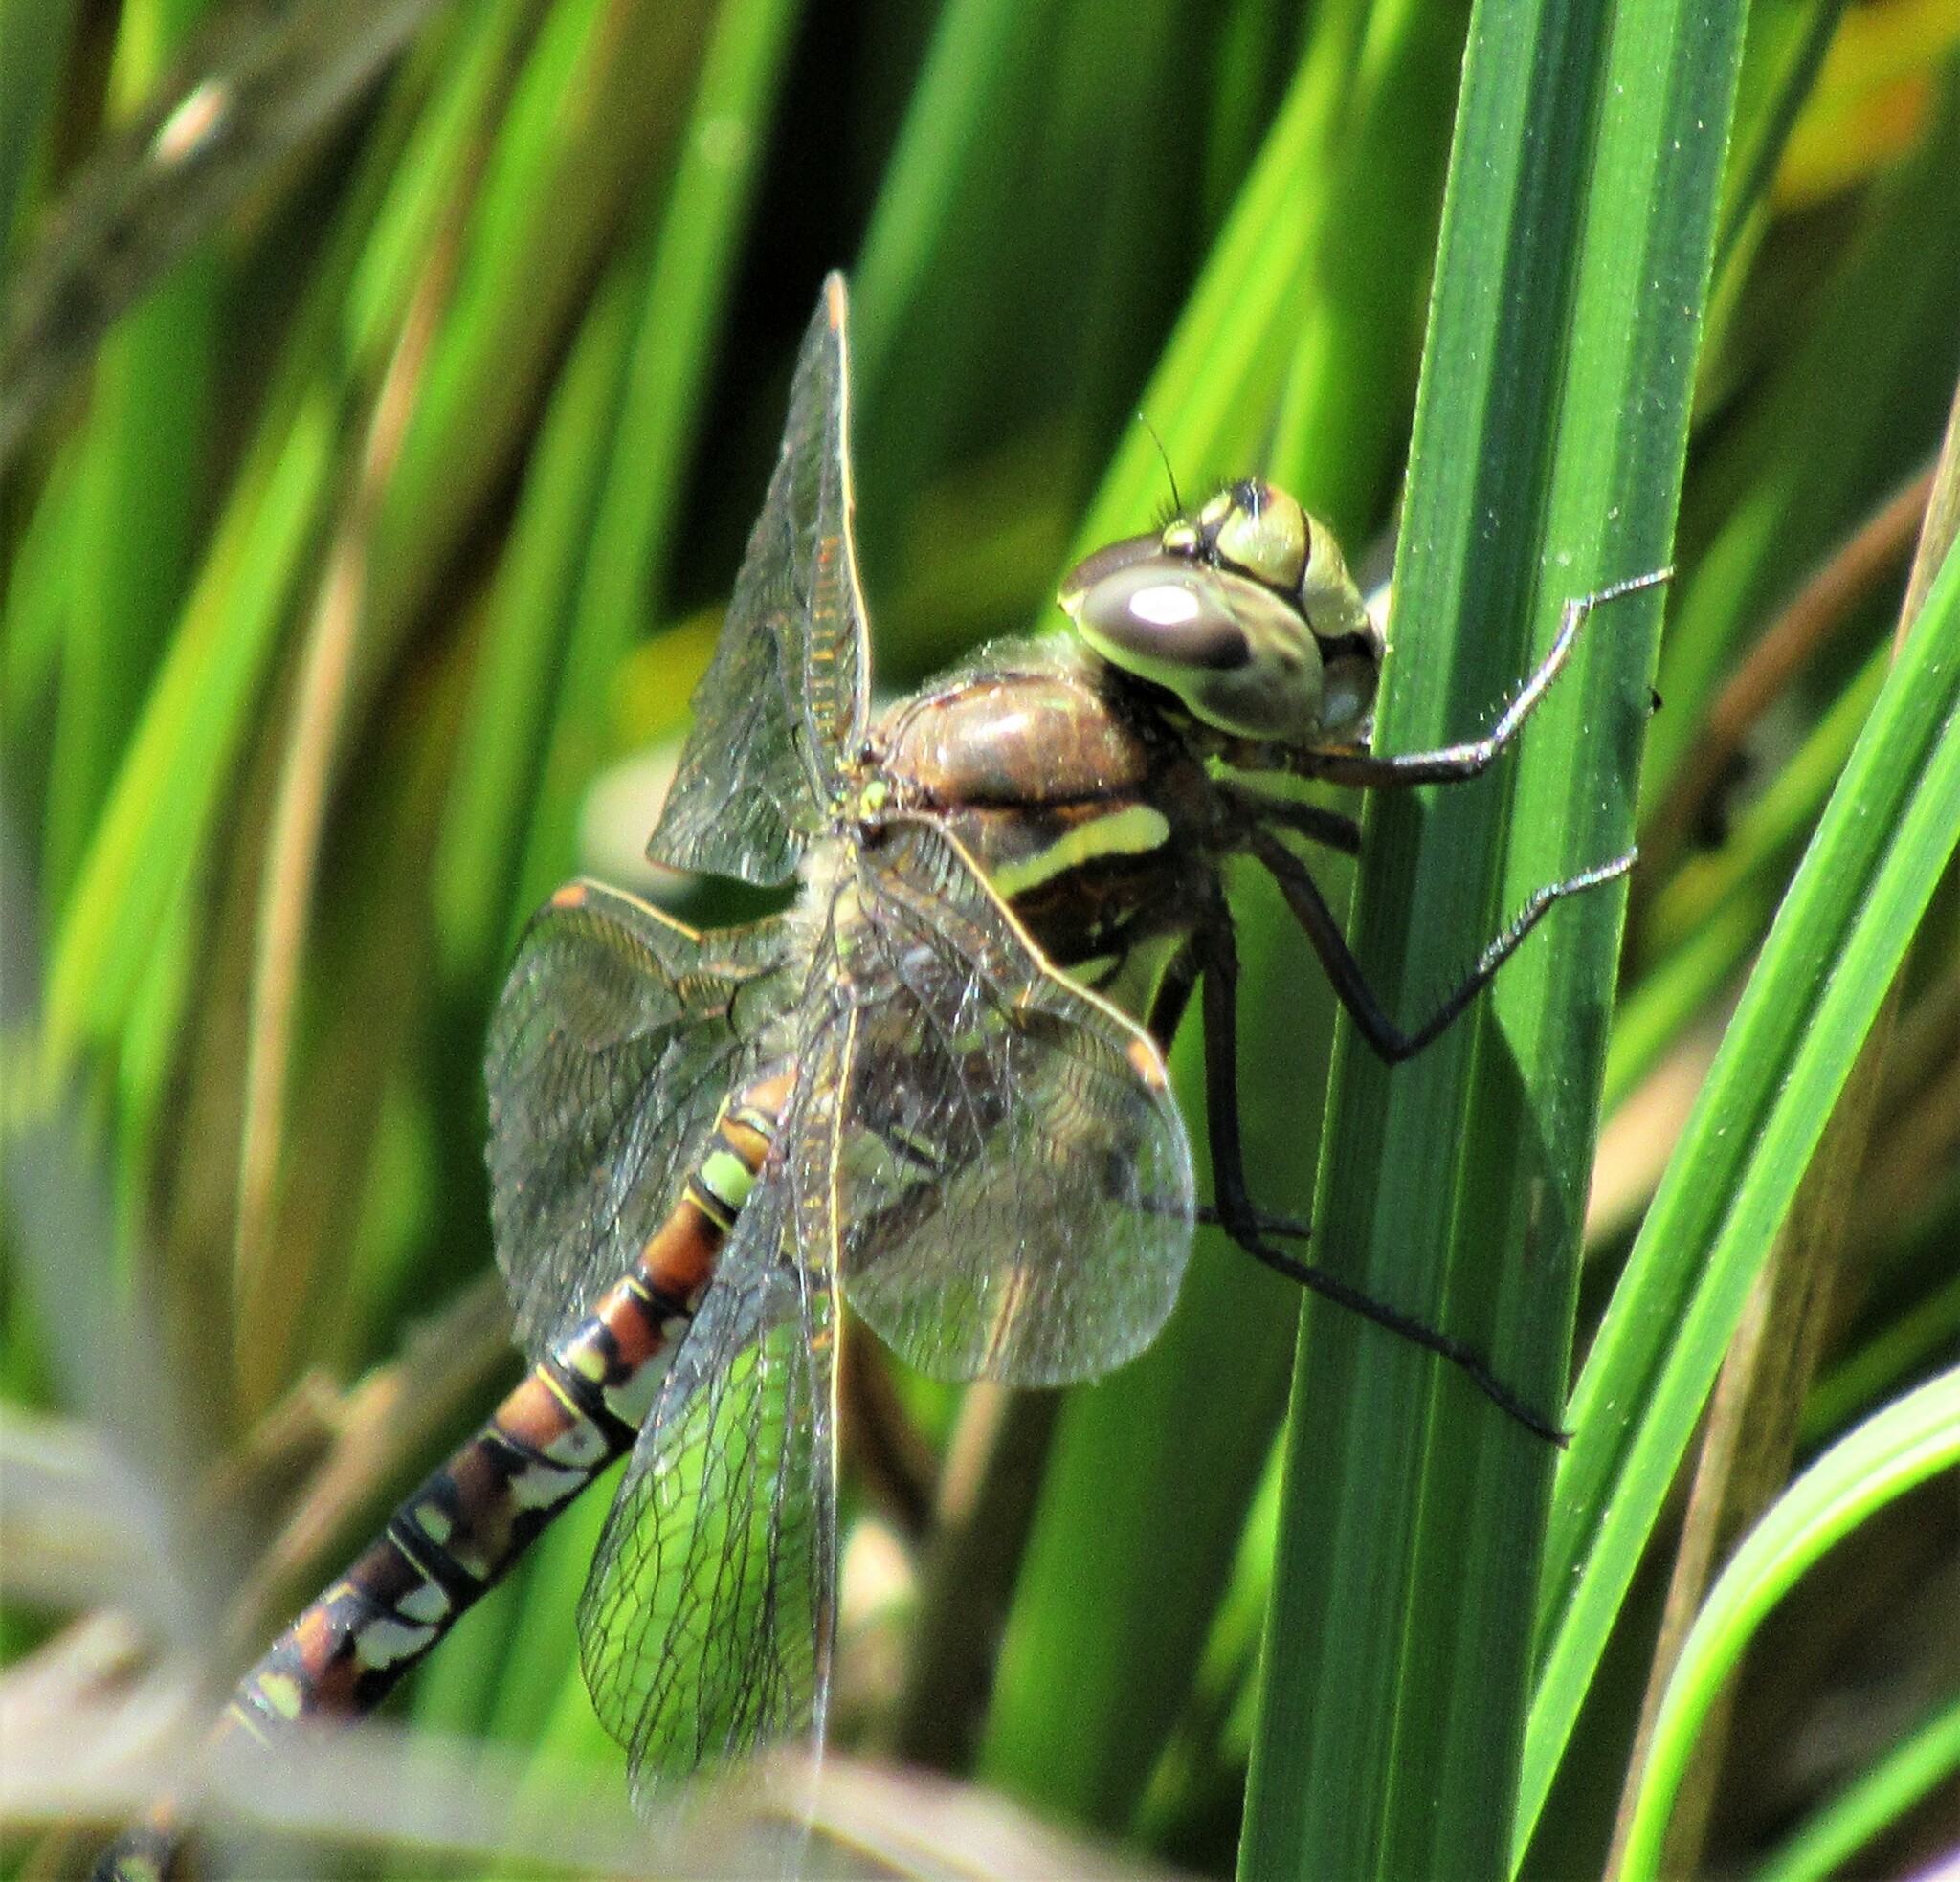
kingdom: Animalia
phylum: Arthropoda
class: Insecta
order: Odonata
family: Aeshnidae
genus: Rhionaeschna
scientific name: Rhionaeschna californica
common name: California darner
